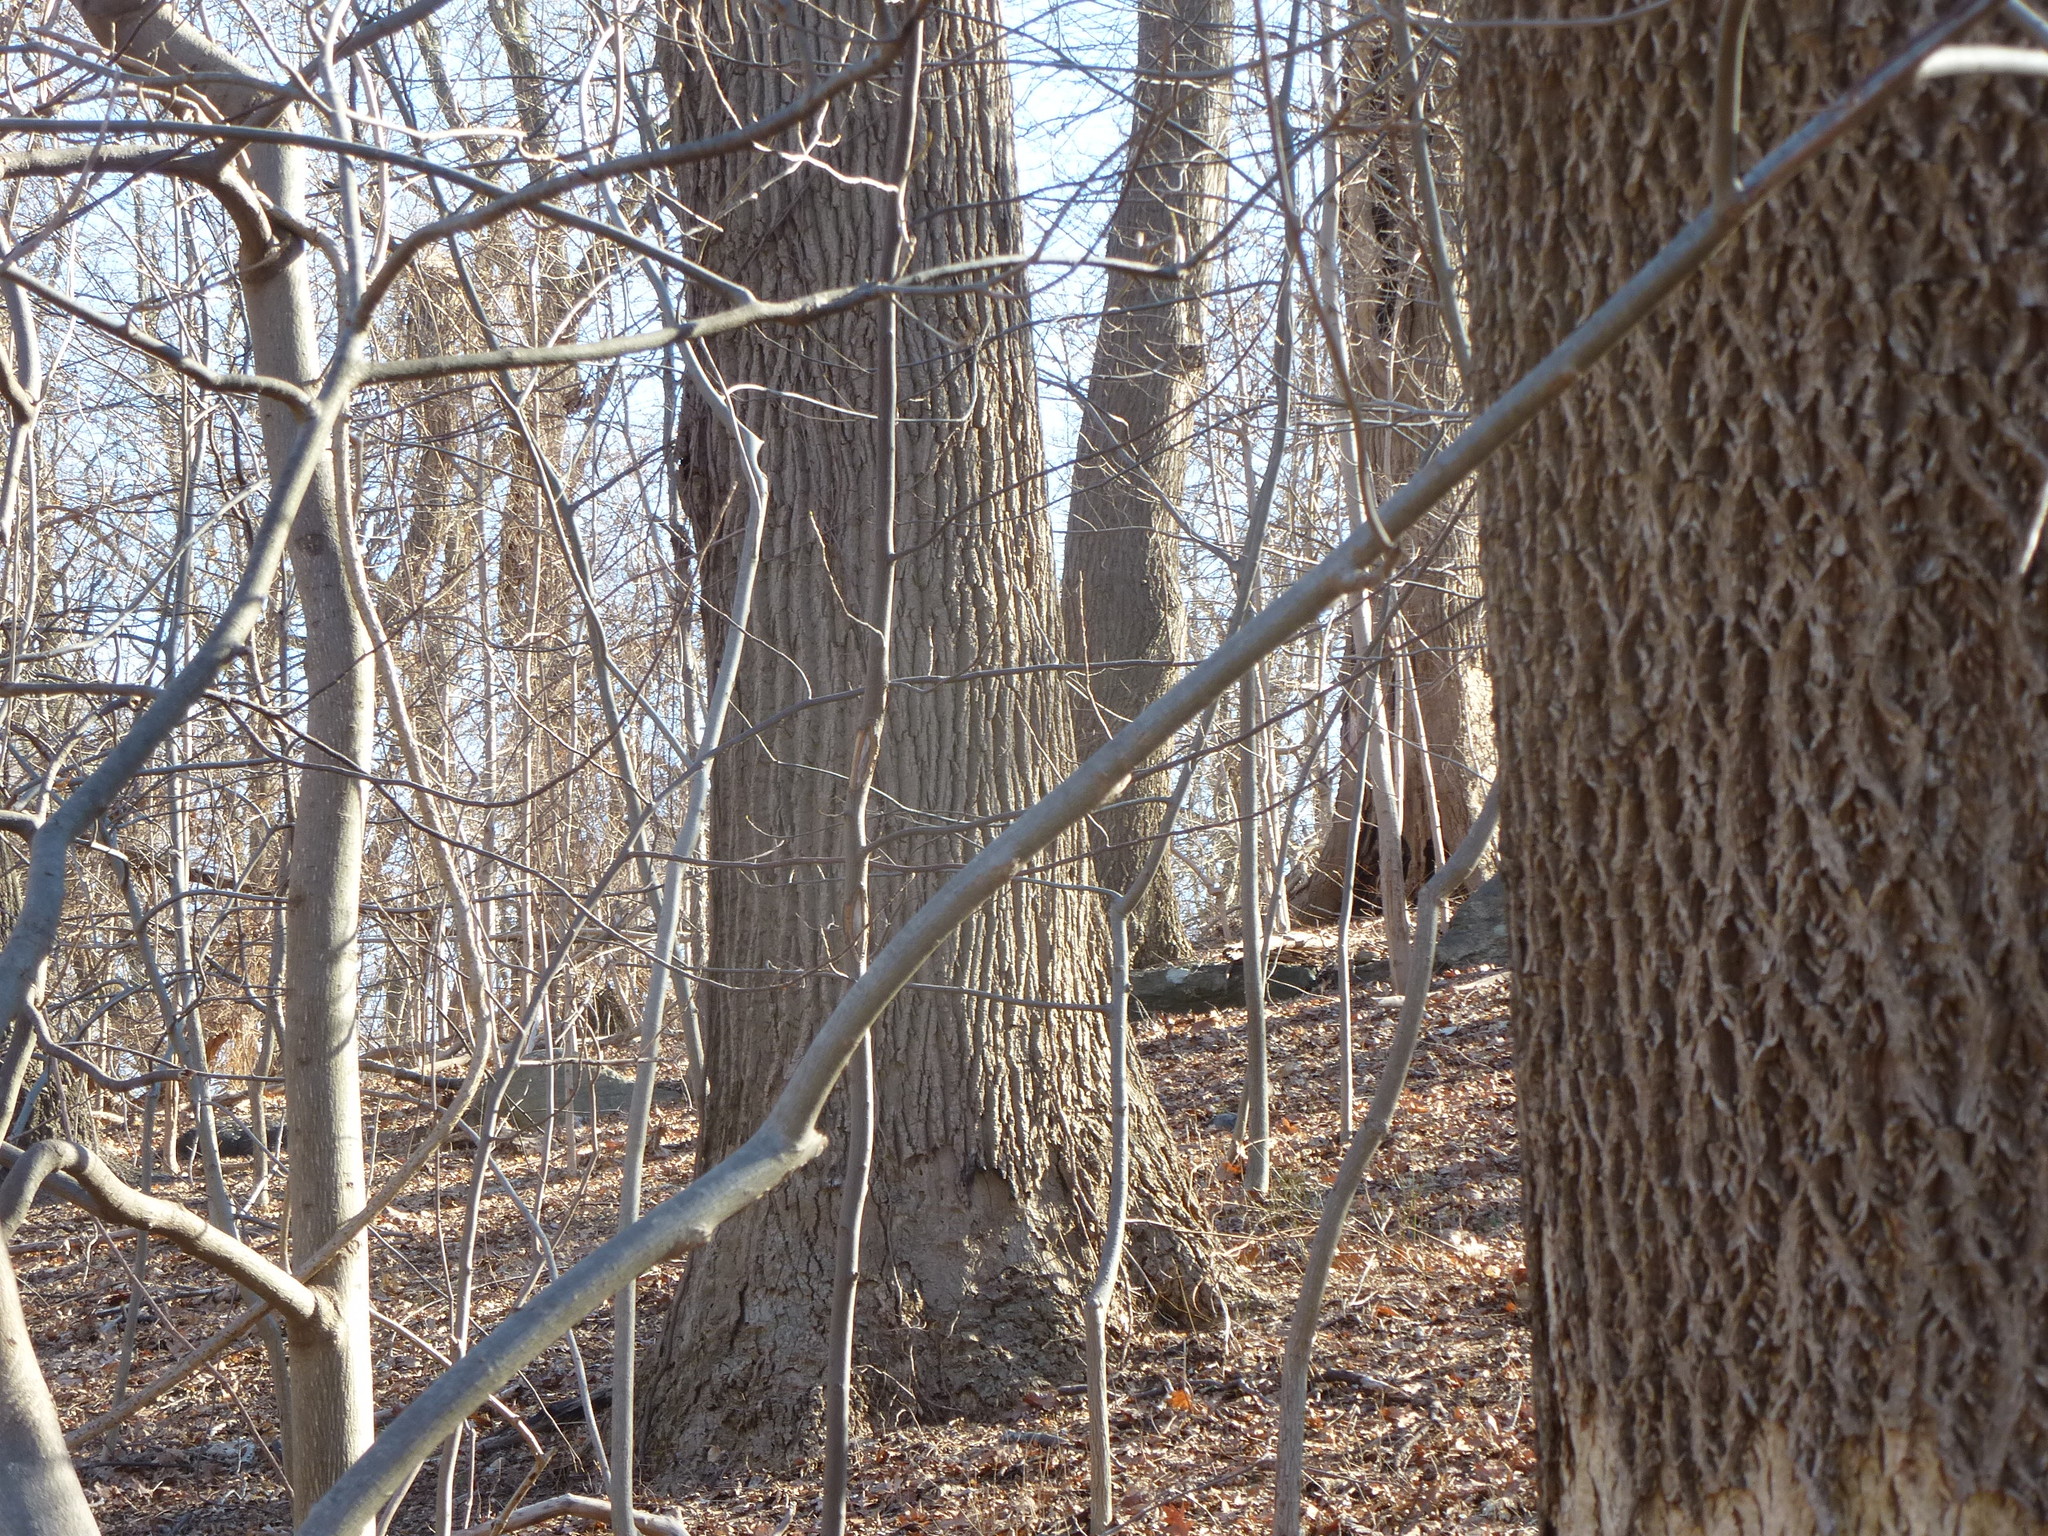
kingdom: Plantae
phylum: Tracheophyta
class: Magnoliopsida
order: Magnoliales
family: Magnoliaceae
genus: Liriodendron
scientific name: Liriodendron tulipifera
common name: Tulip tree
